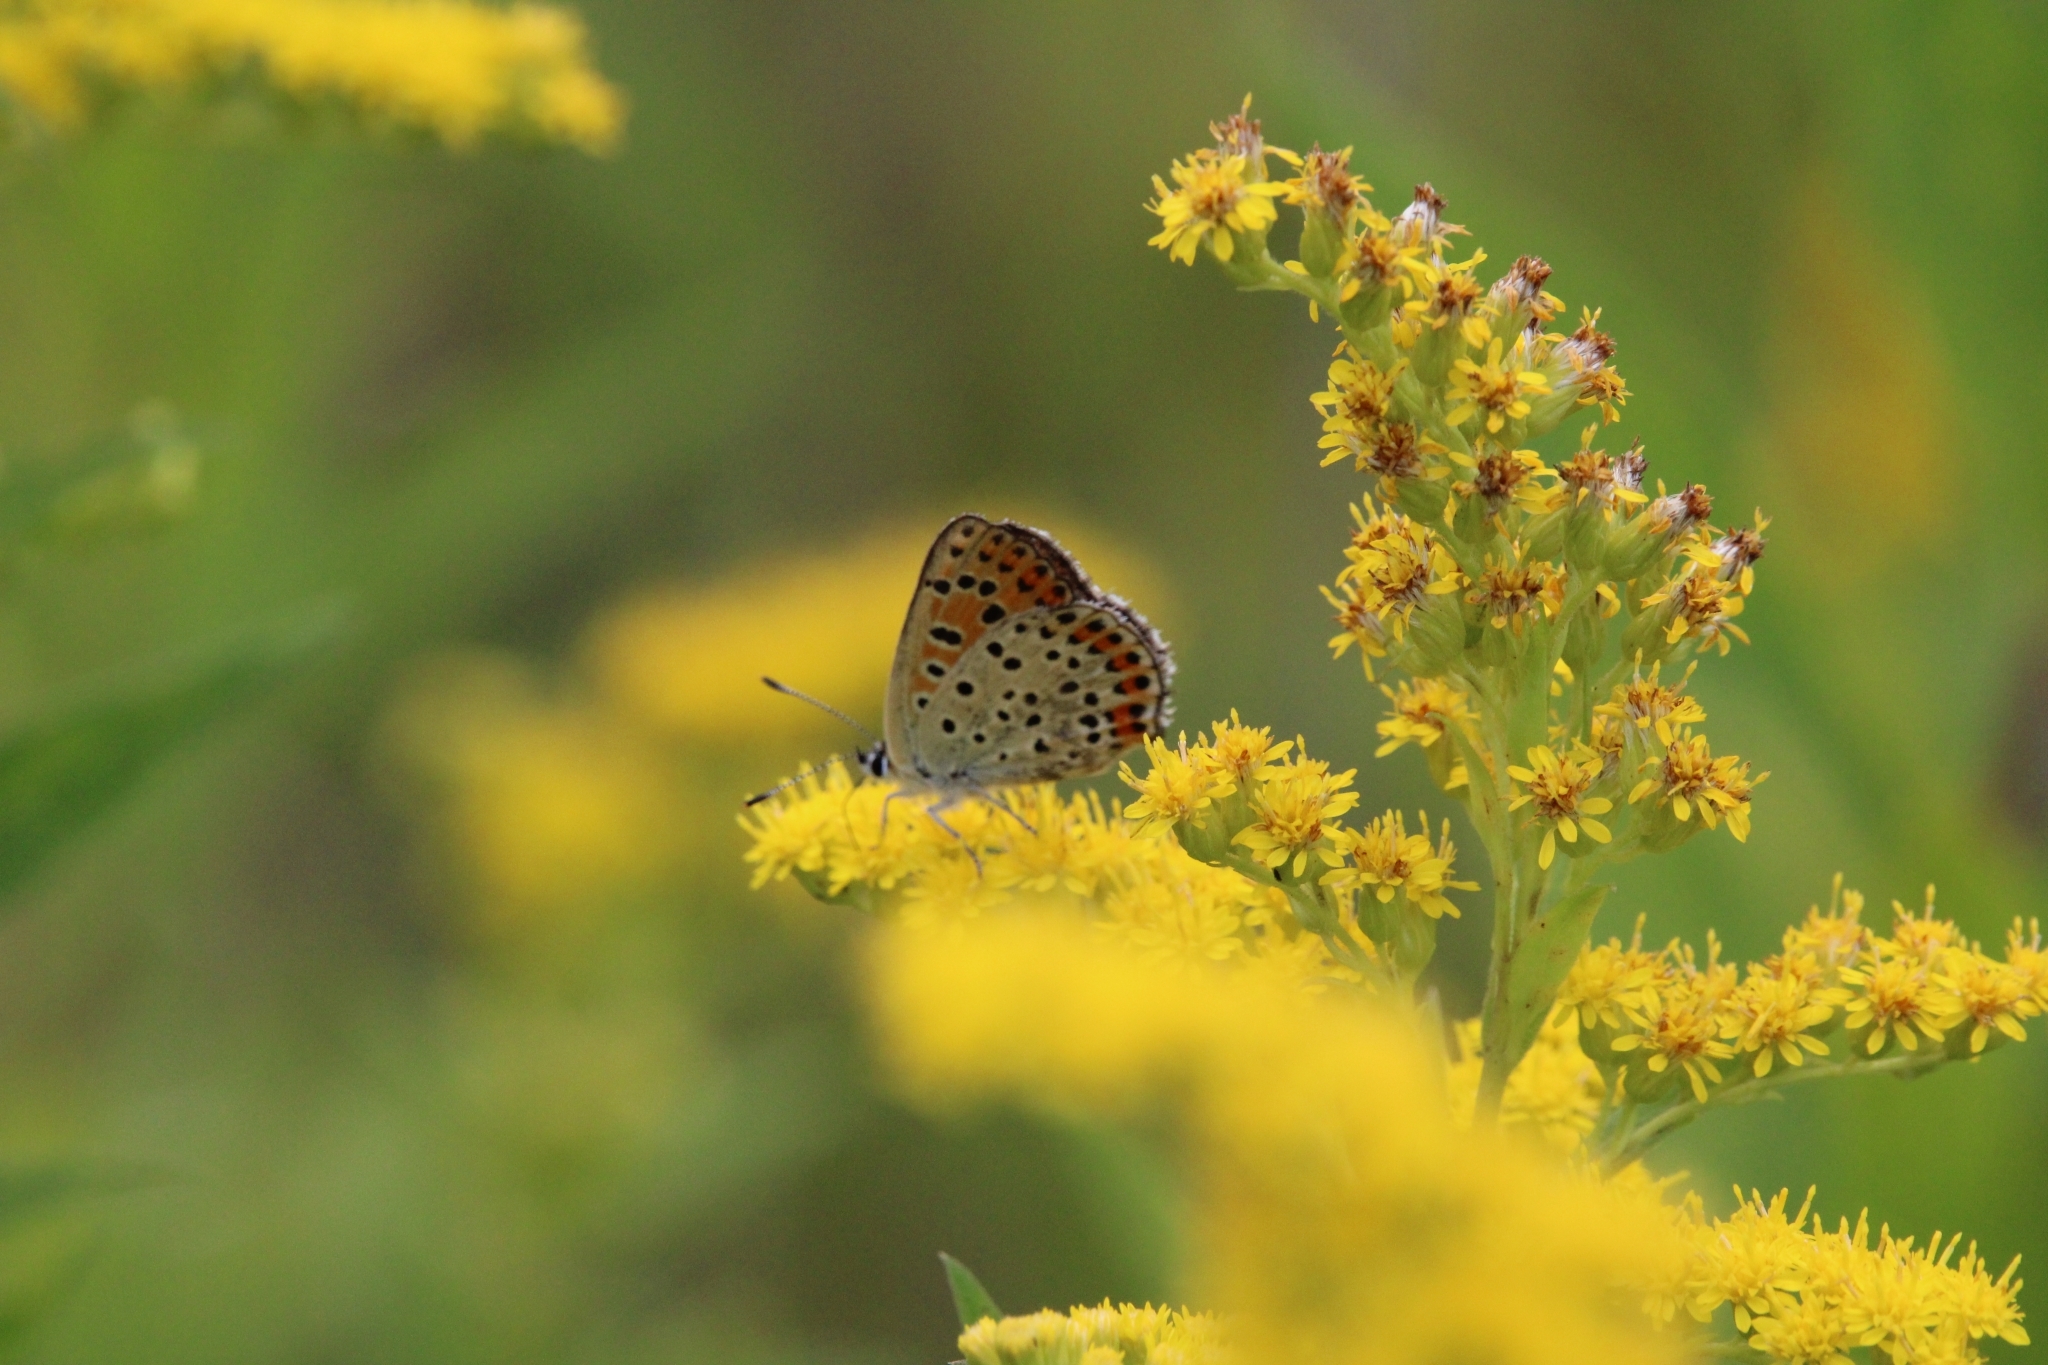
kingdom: Animalia
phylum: Arthropoda
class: Insecta
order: Lepidoptera
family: Lycaenidae
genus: Loweia
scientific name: Loweia tityrus
